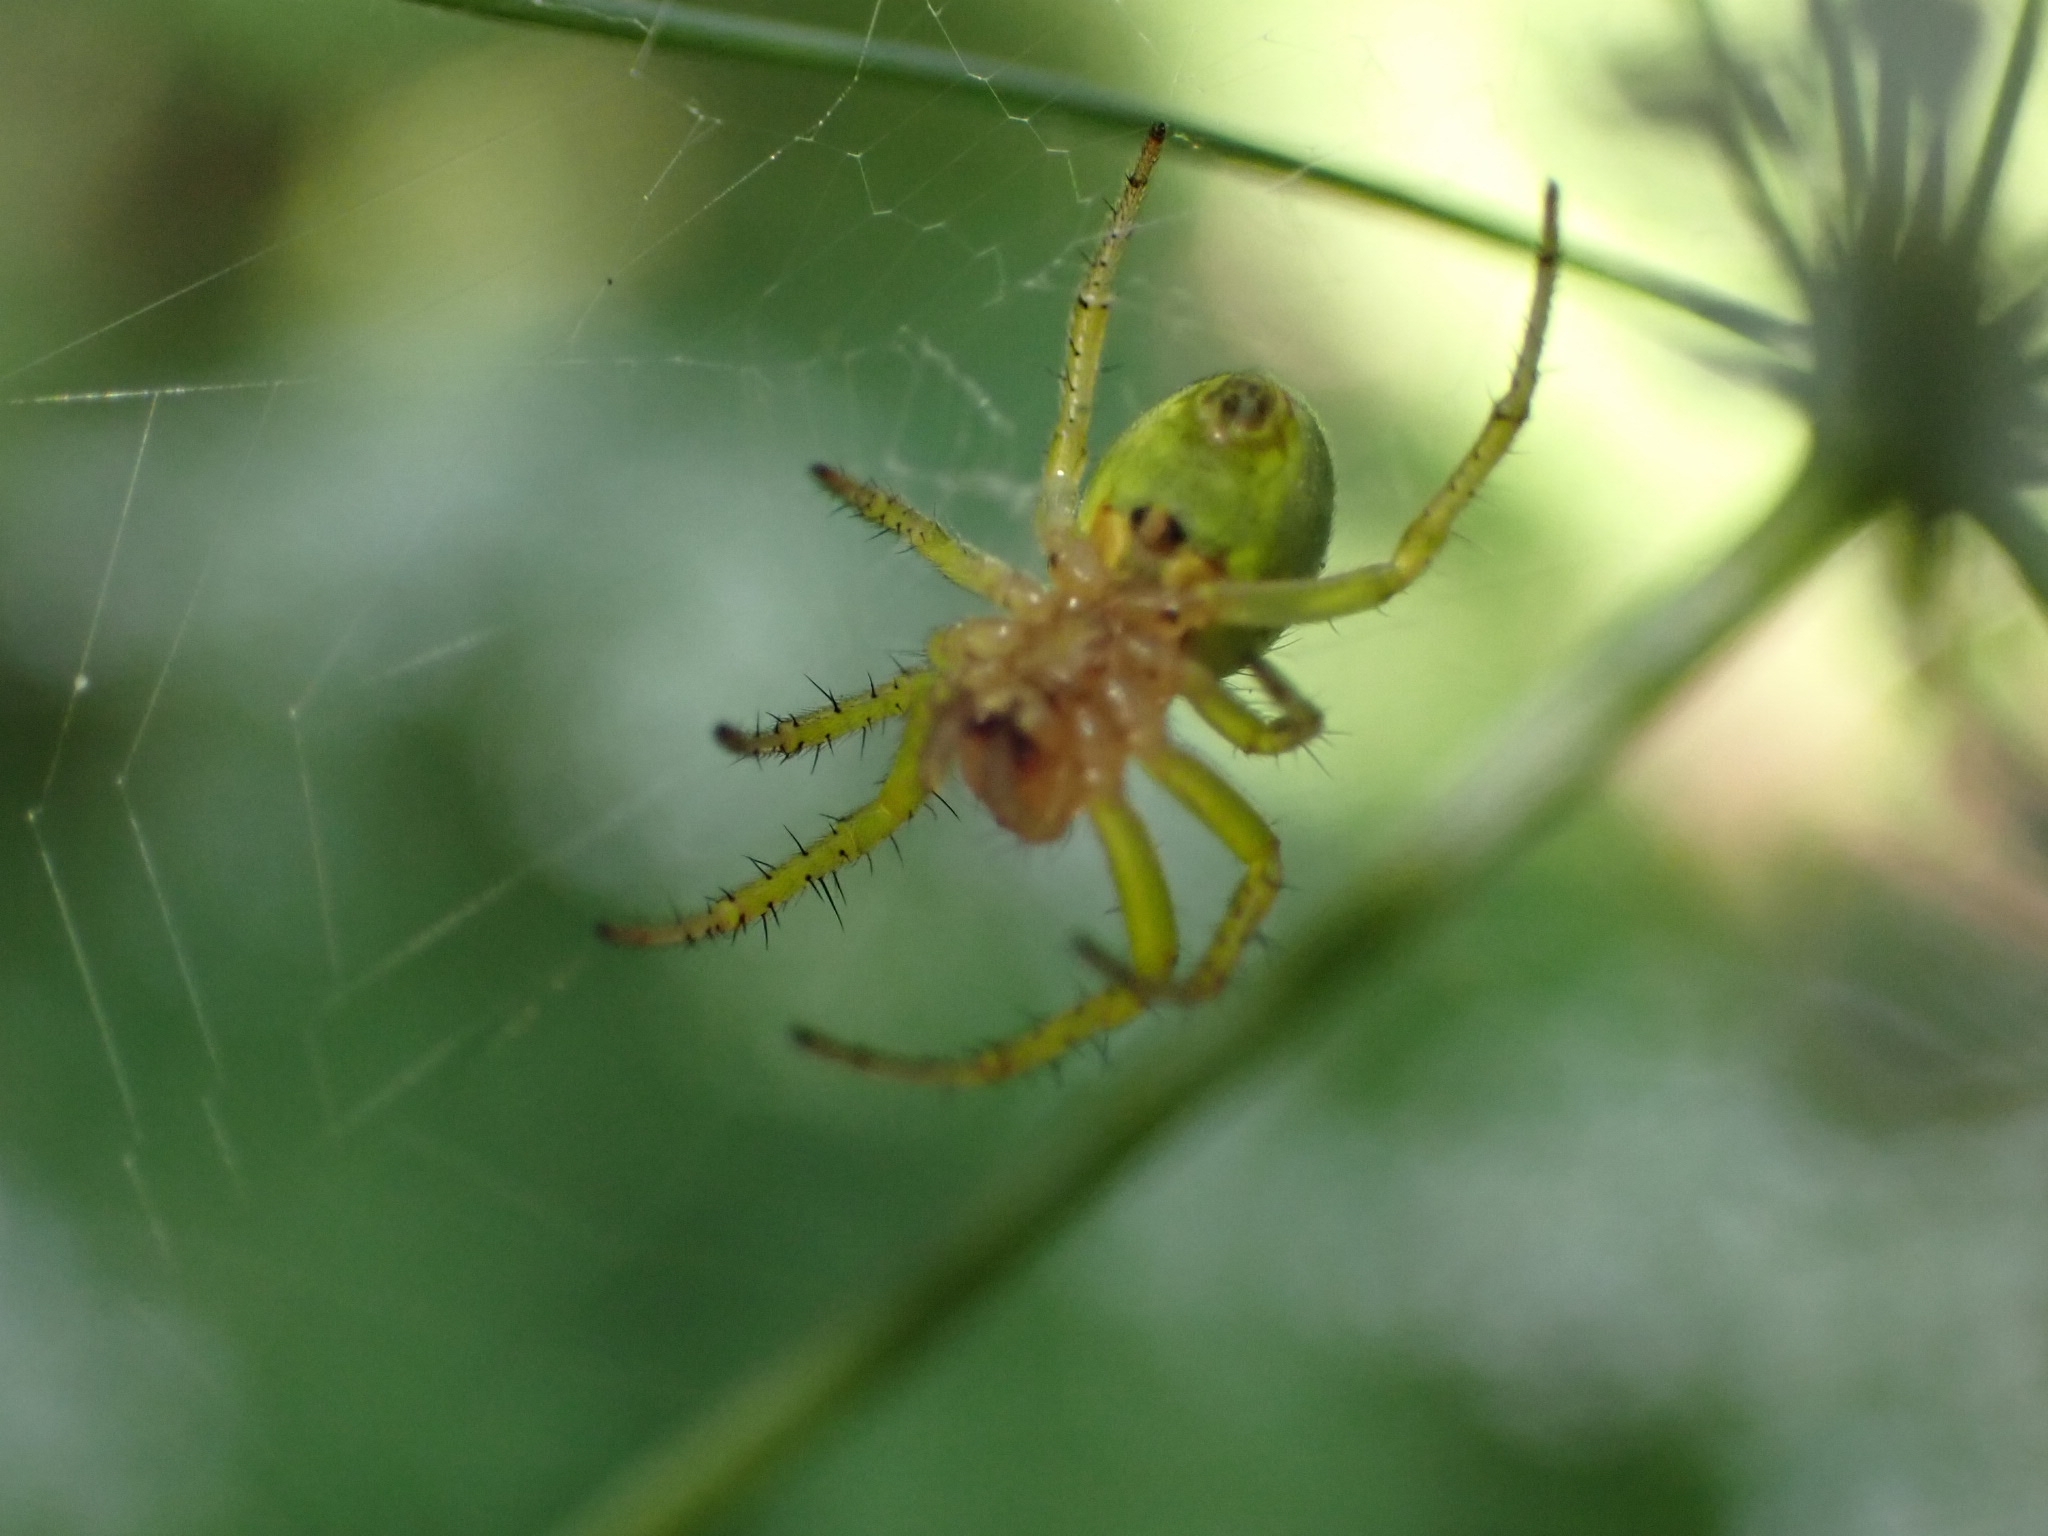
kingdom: Animalia
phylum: Arthropoda
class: Arachnida
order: Araneae
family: Araneidae
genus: Araniella
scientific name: Araniella cucurbitina
